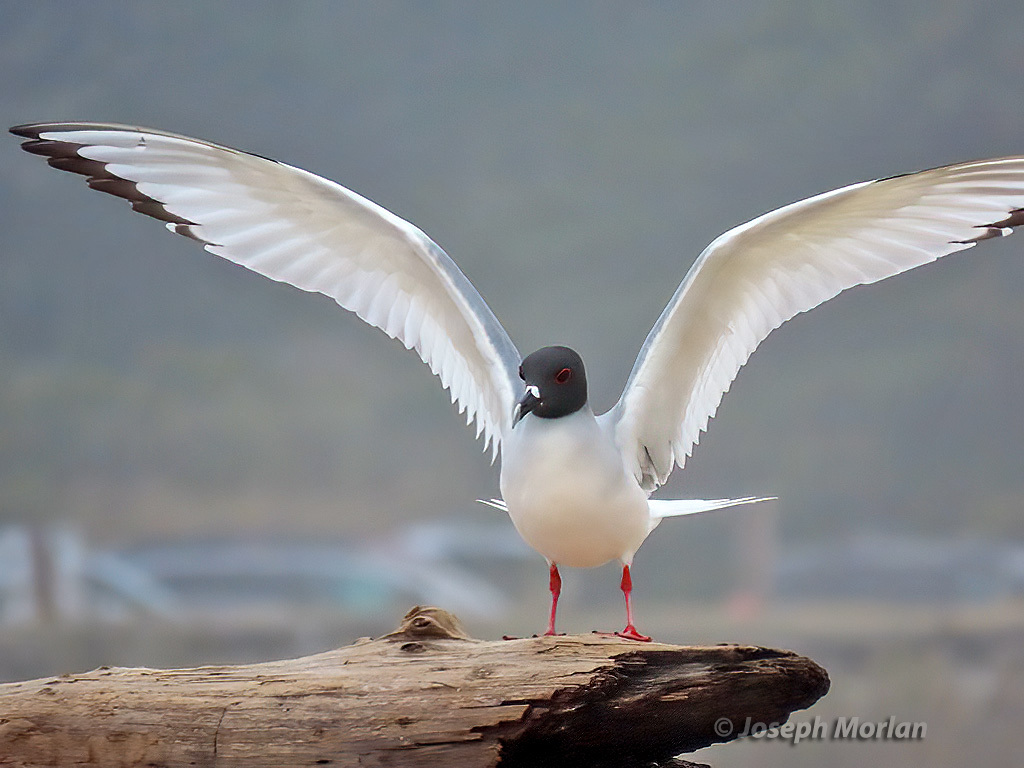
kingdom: Animalia
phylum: Chordata
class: Aves
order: Charadriiformes
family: Laridae
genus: Creagrus
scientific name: Creagrus furcatus
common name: Swallow-tailed gull
